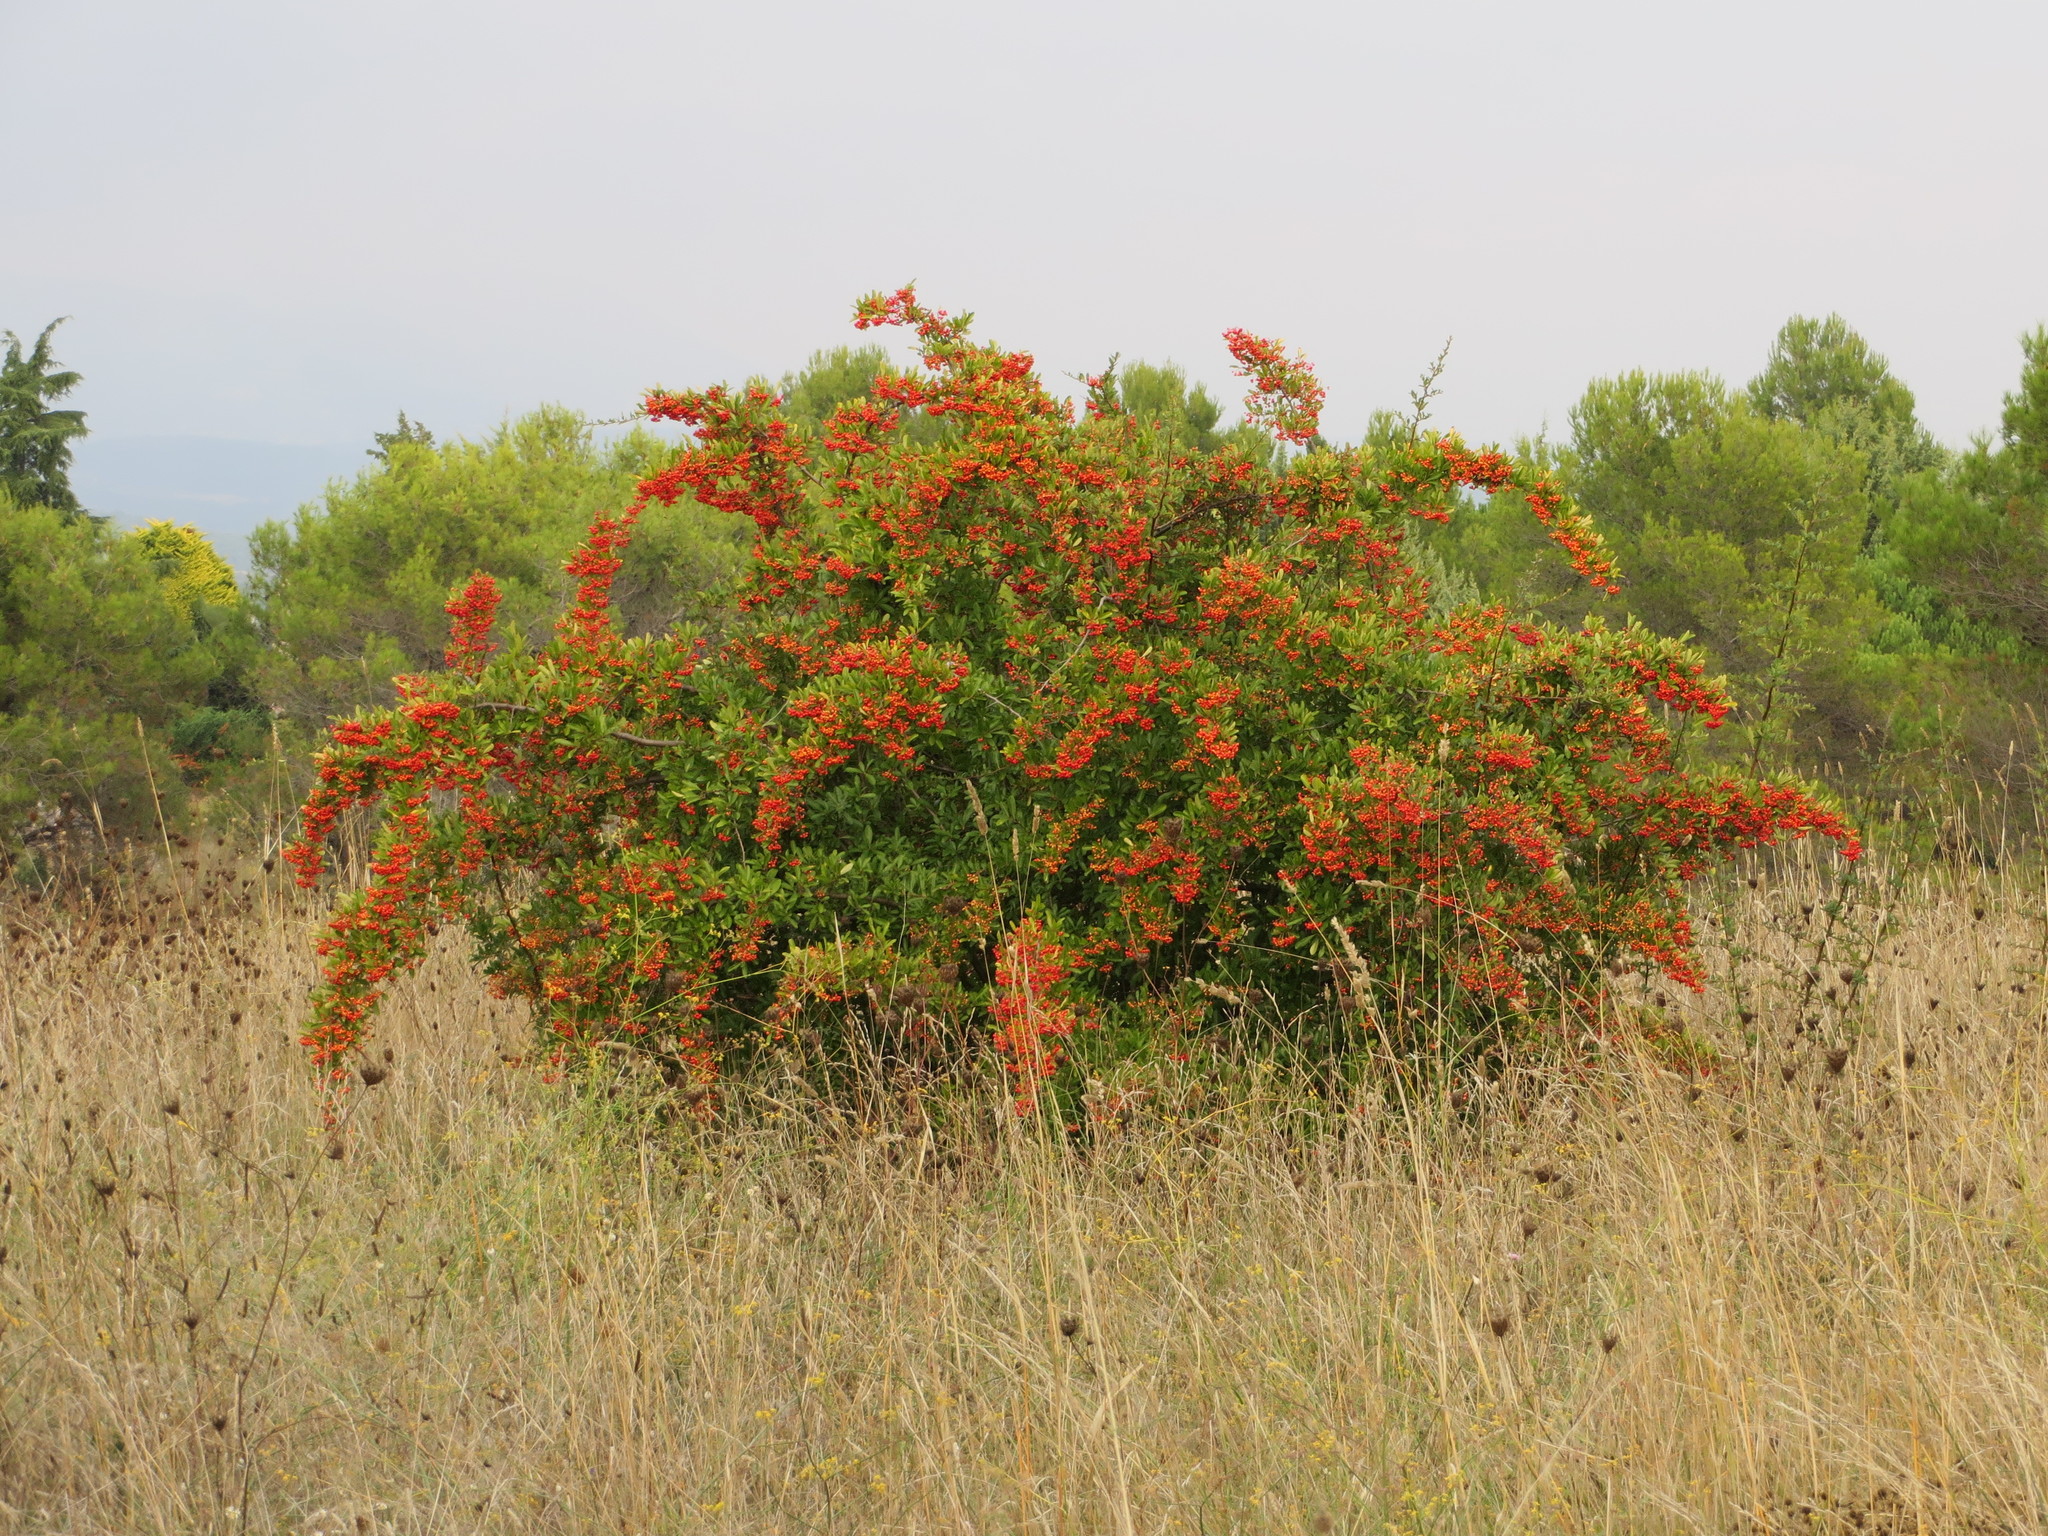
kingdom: Plantae
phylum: Tracheophyta
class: Magnoliopsida
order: Rosales
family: Rosaceae
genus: Pyracantha
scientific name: Pyracantha coccinea
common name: Firethorn
